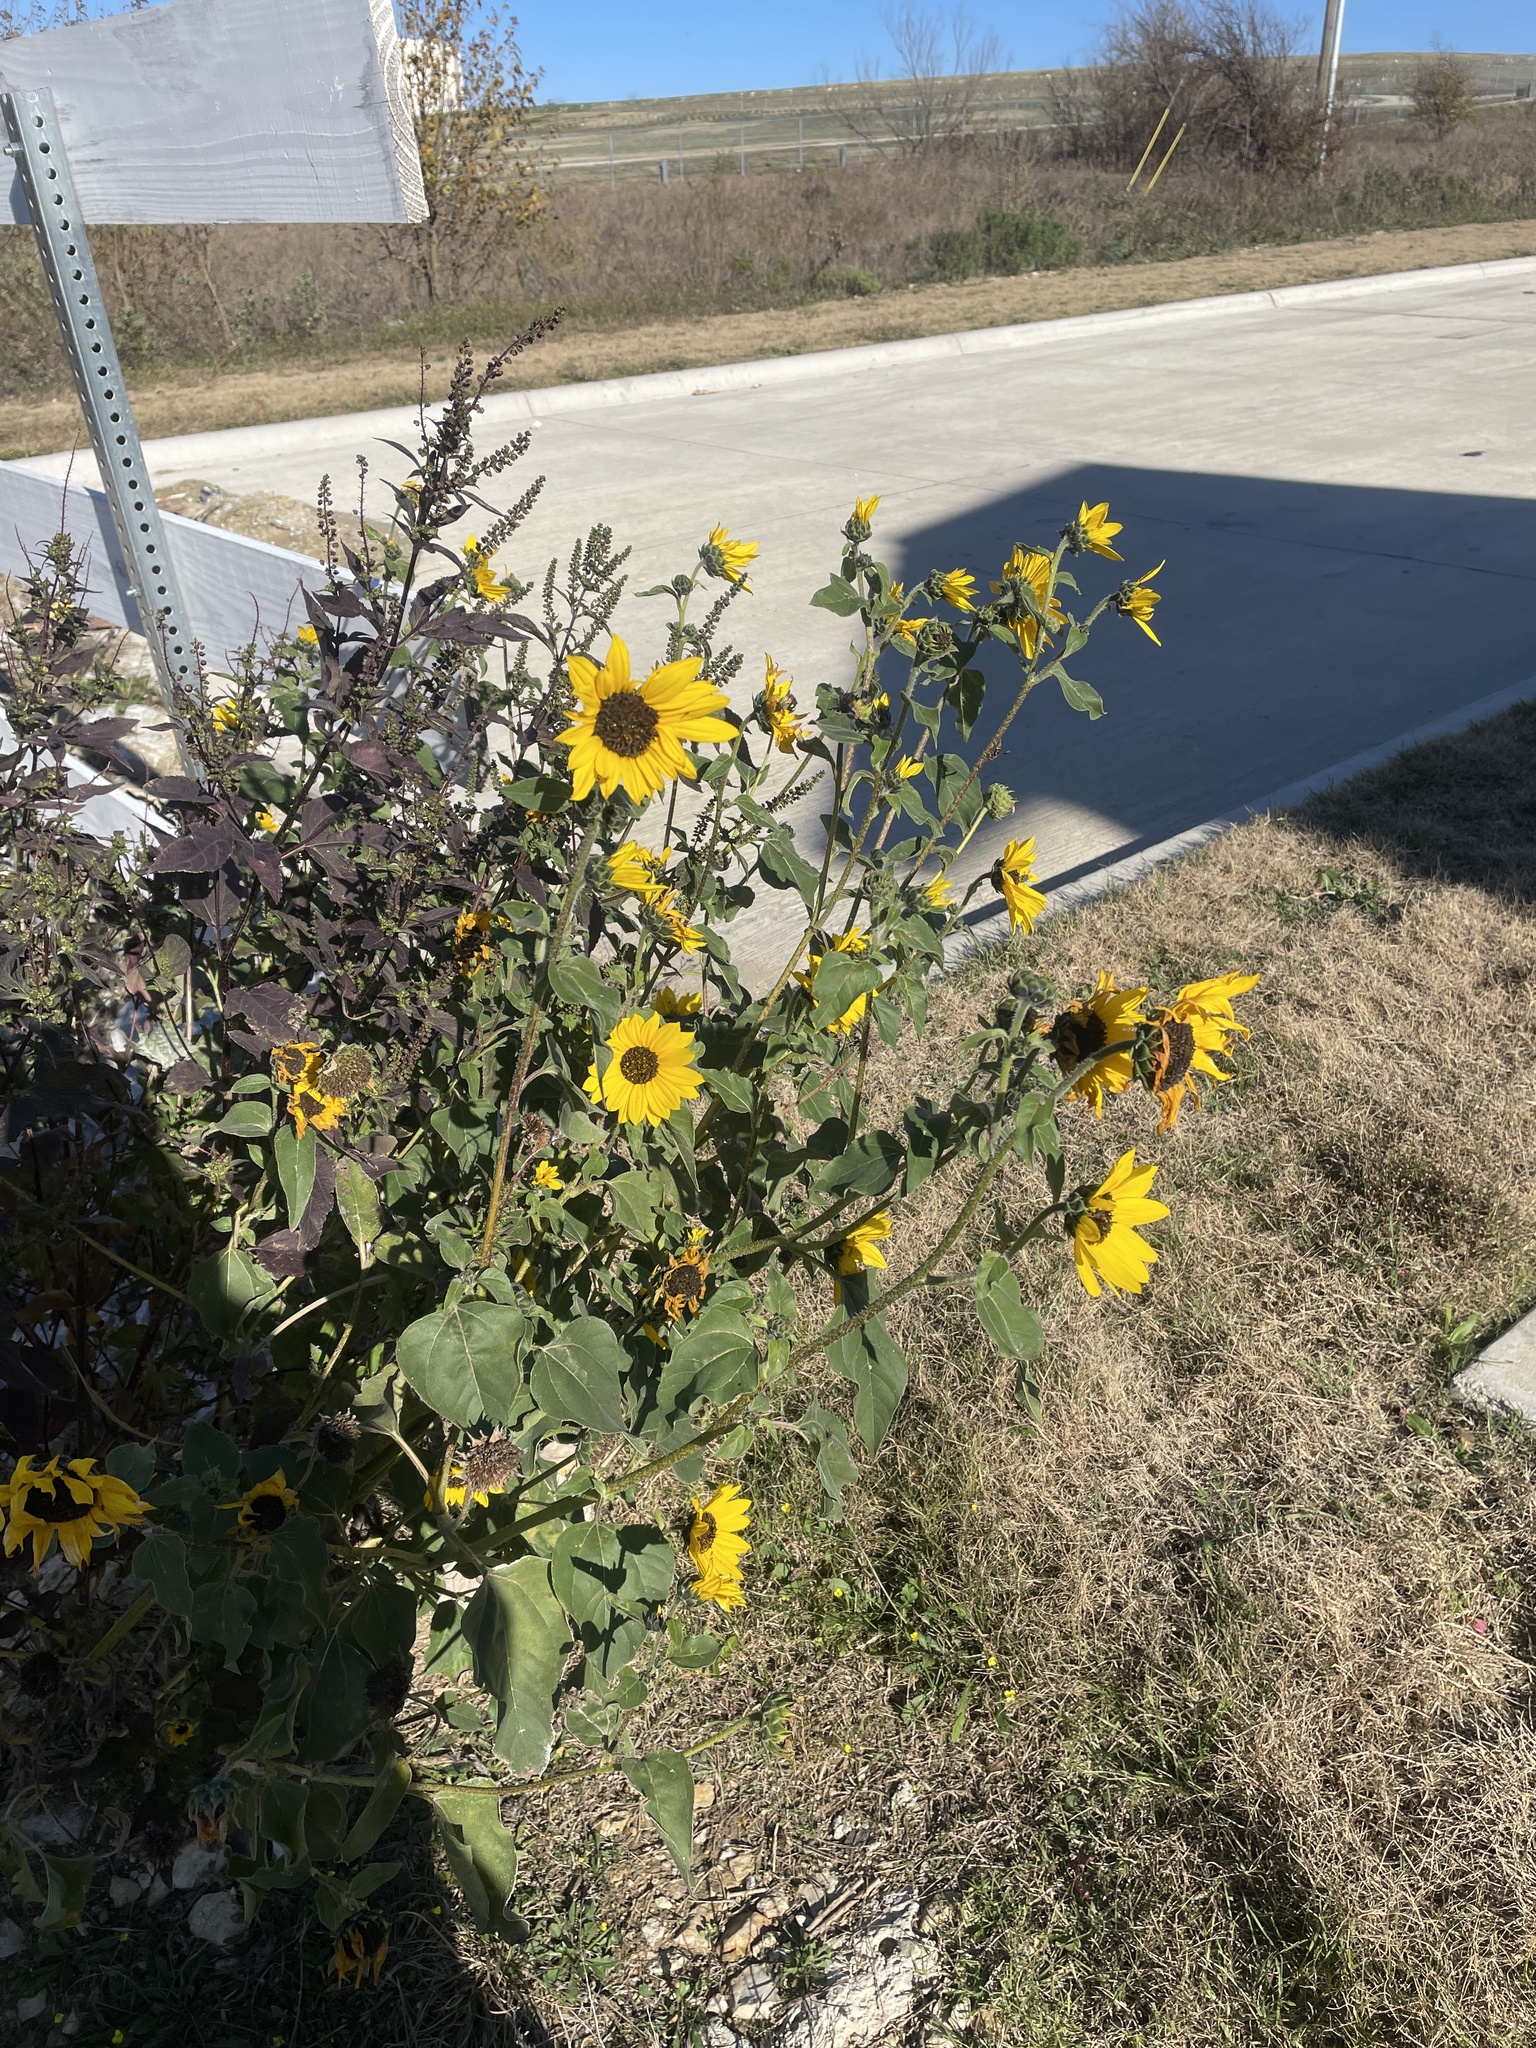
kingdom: Plantae
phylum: Tracheophyta
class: Magnoliopsida
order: Asterales
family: Asteraceae
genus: Helianthus
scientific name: Helianthus annuus
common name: Sunflower
